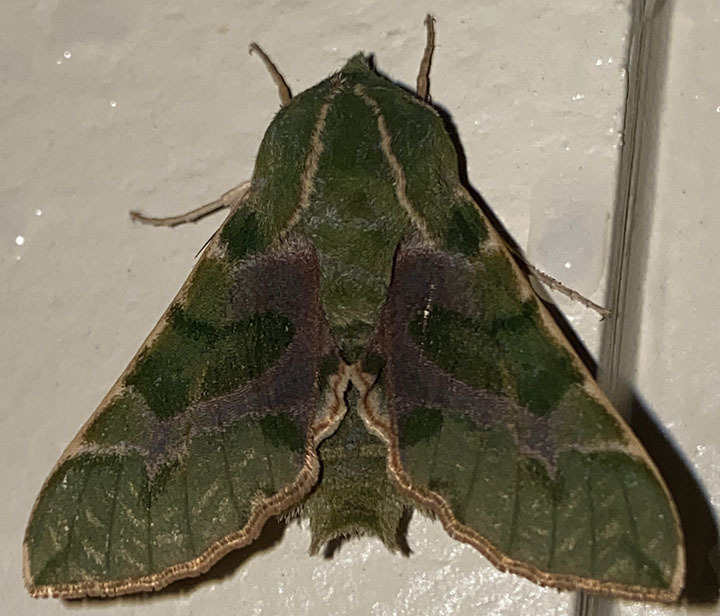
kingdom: Animalia
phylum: Arthropoda
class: Insecta
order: Lepidoptera
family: Sphingidae
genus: Proserpinus
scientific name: Proserpinus lucidus
